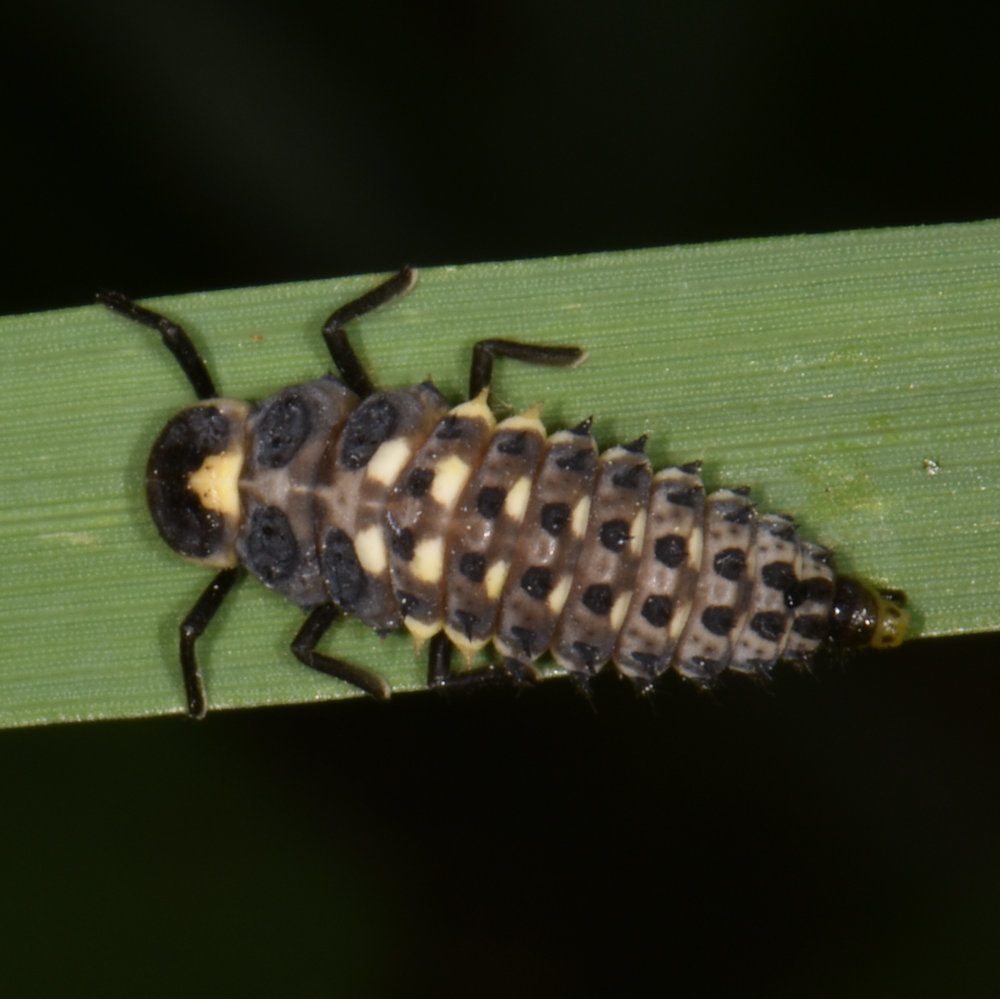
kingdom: Animalia
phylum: Arthropoda
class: Insecta
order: Coleoptera
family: Coccinellidae
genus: Anatis
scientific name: Anatis mali
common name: Eye-spotted lady beetle
